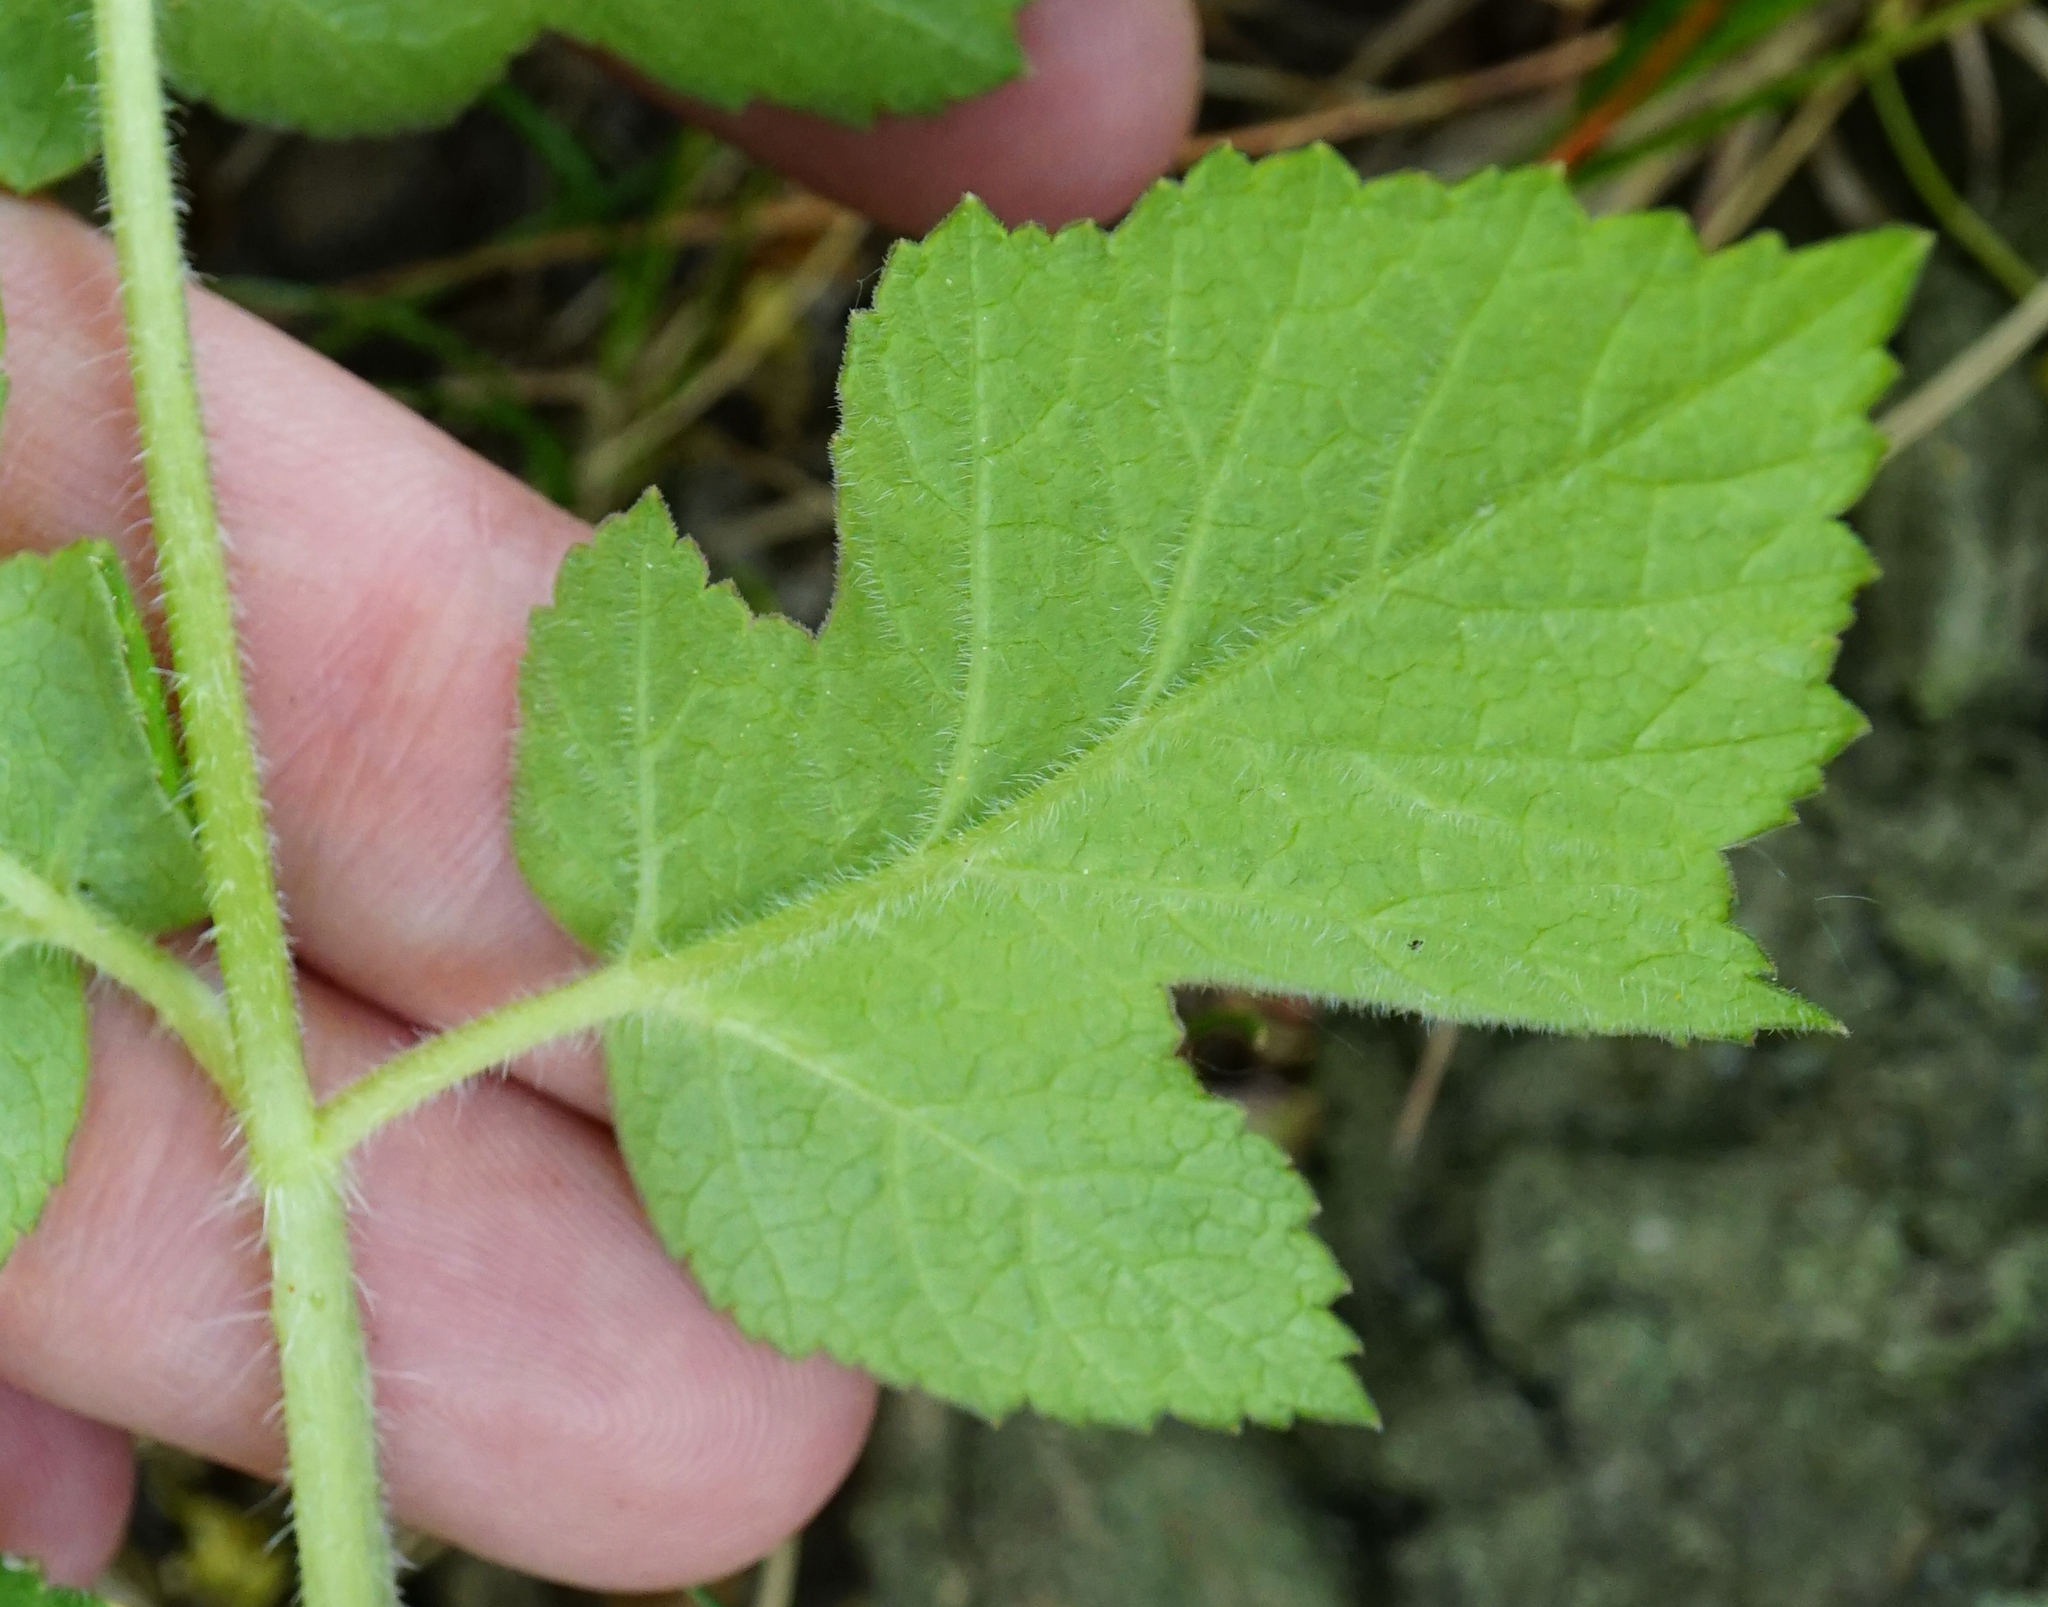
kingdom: Plantae
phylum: Tracheophyta
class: Magnoliopsida
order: Apiales
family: Apiaceae
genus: Heracleum
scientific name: Heracleum sphondylium
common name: Hogweed
